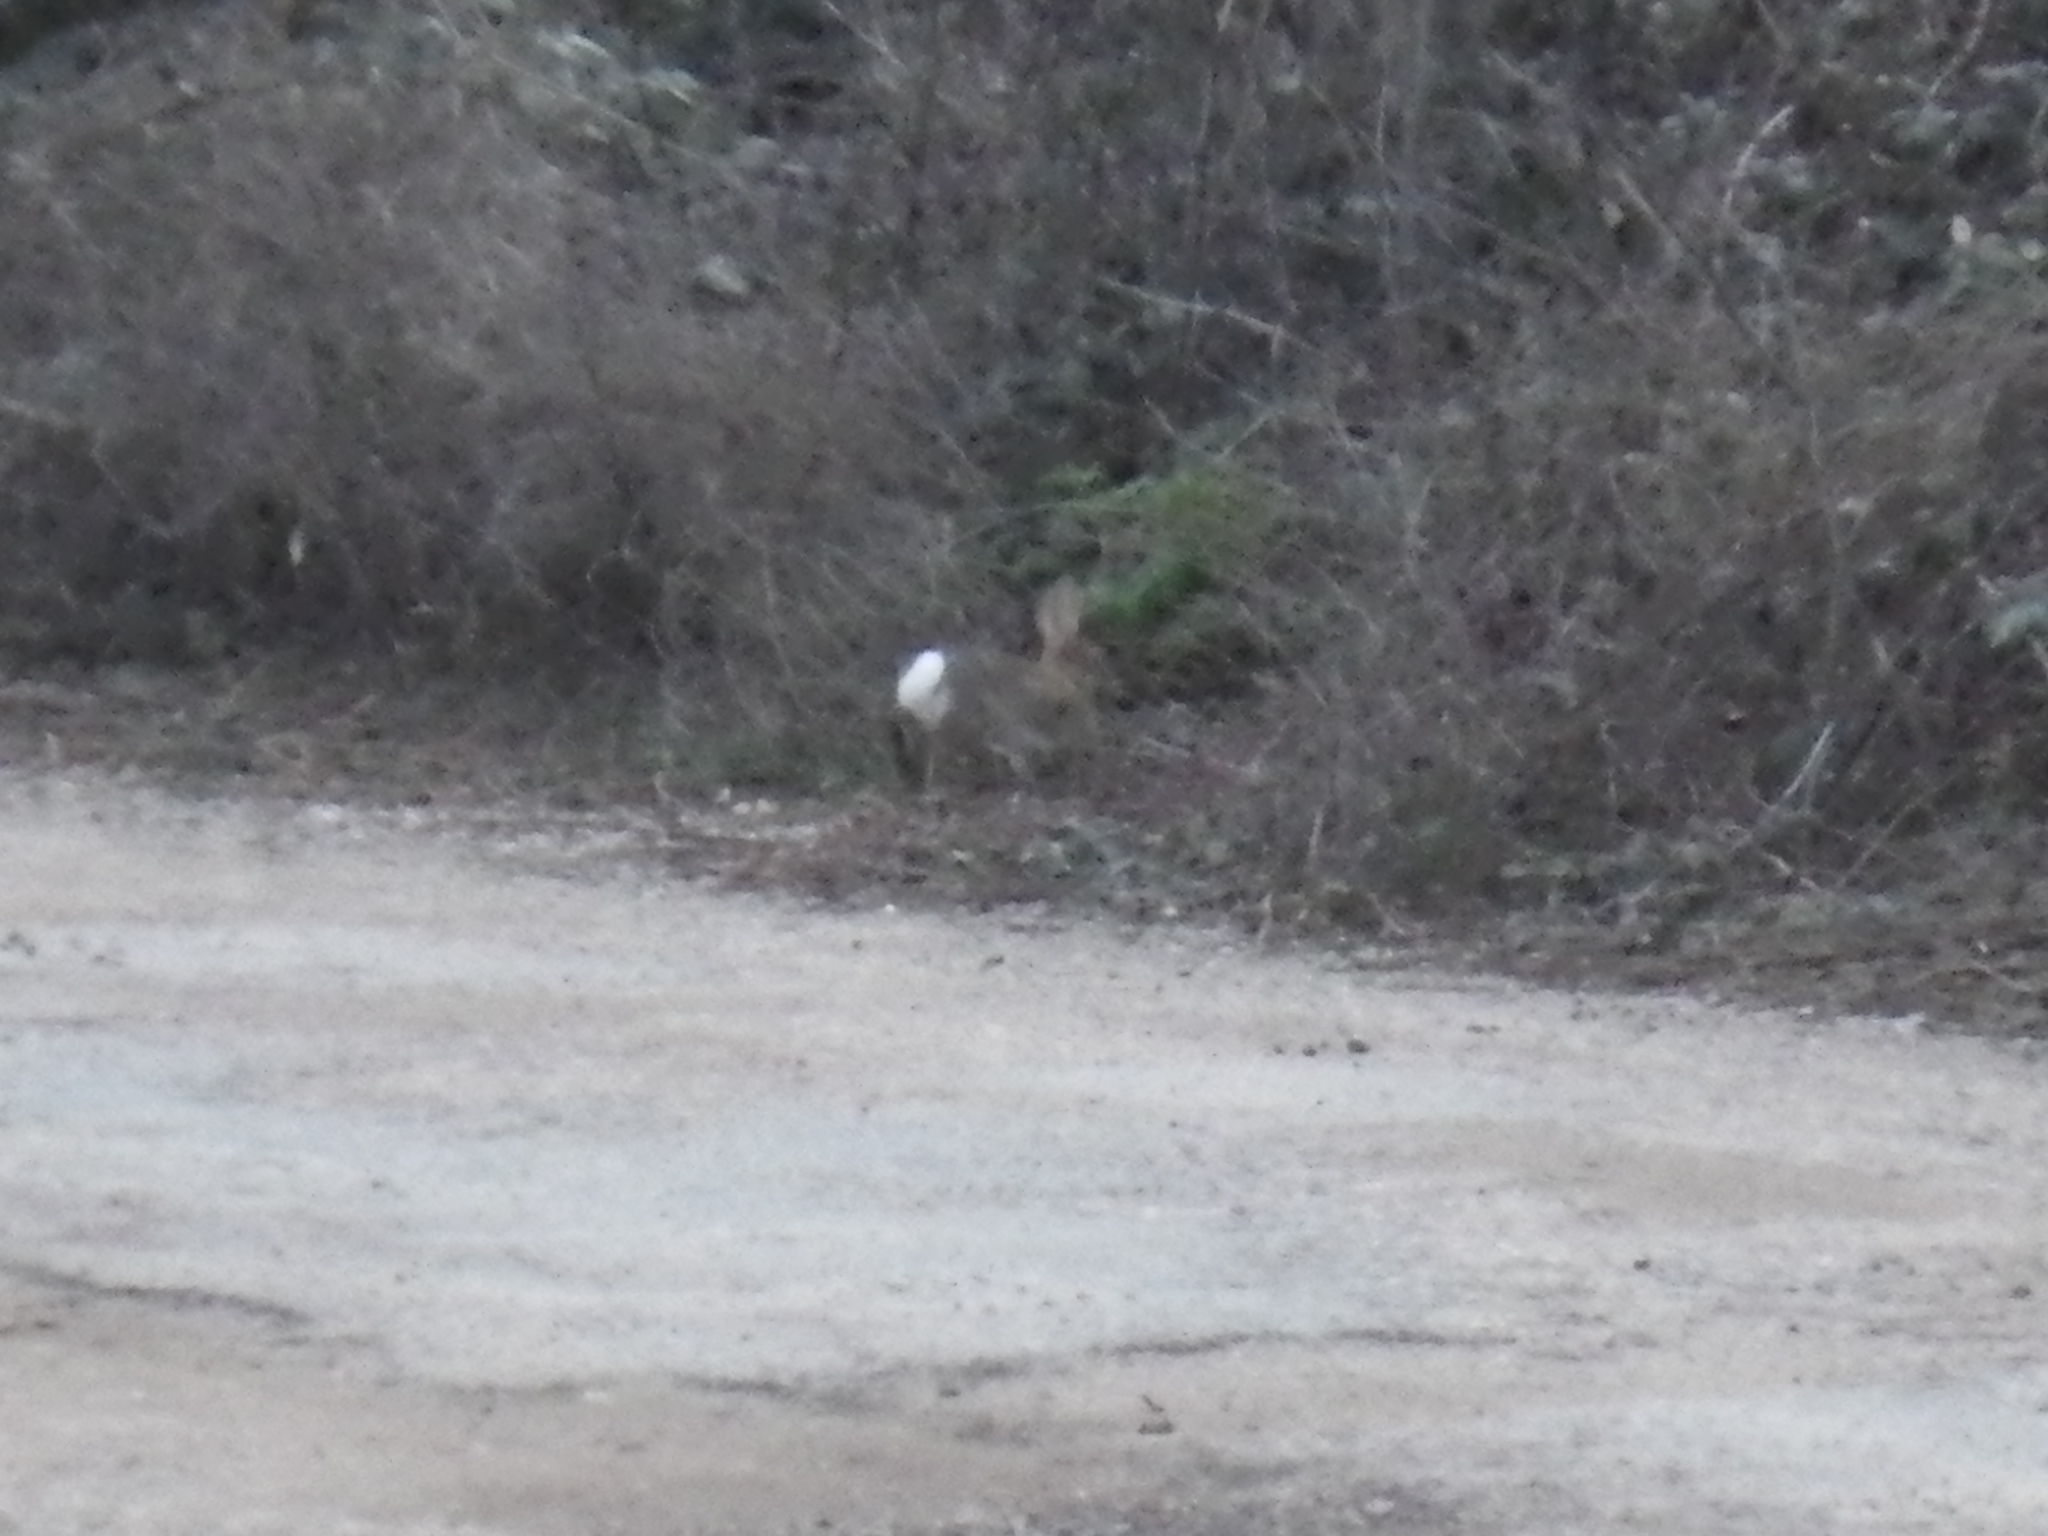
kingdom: Animalia
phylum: Chordata
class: Mammalia
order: Lagomorpha
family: Leporidae
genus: Sylvilagus
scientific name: Sylvilagus audubonii
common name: Desert cottontail
